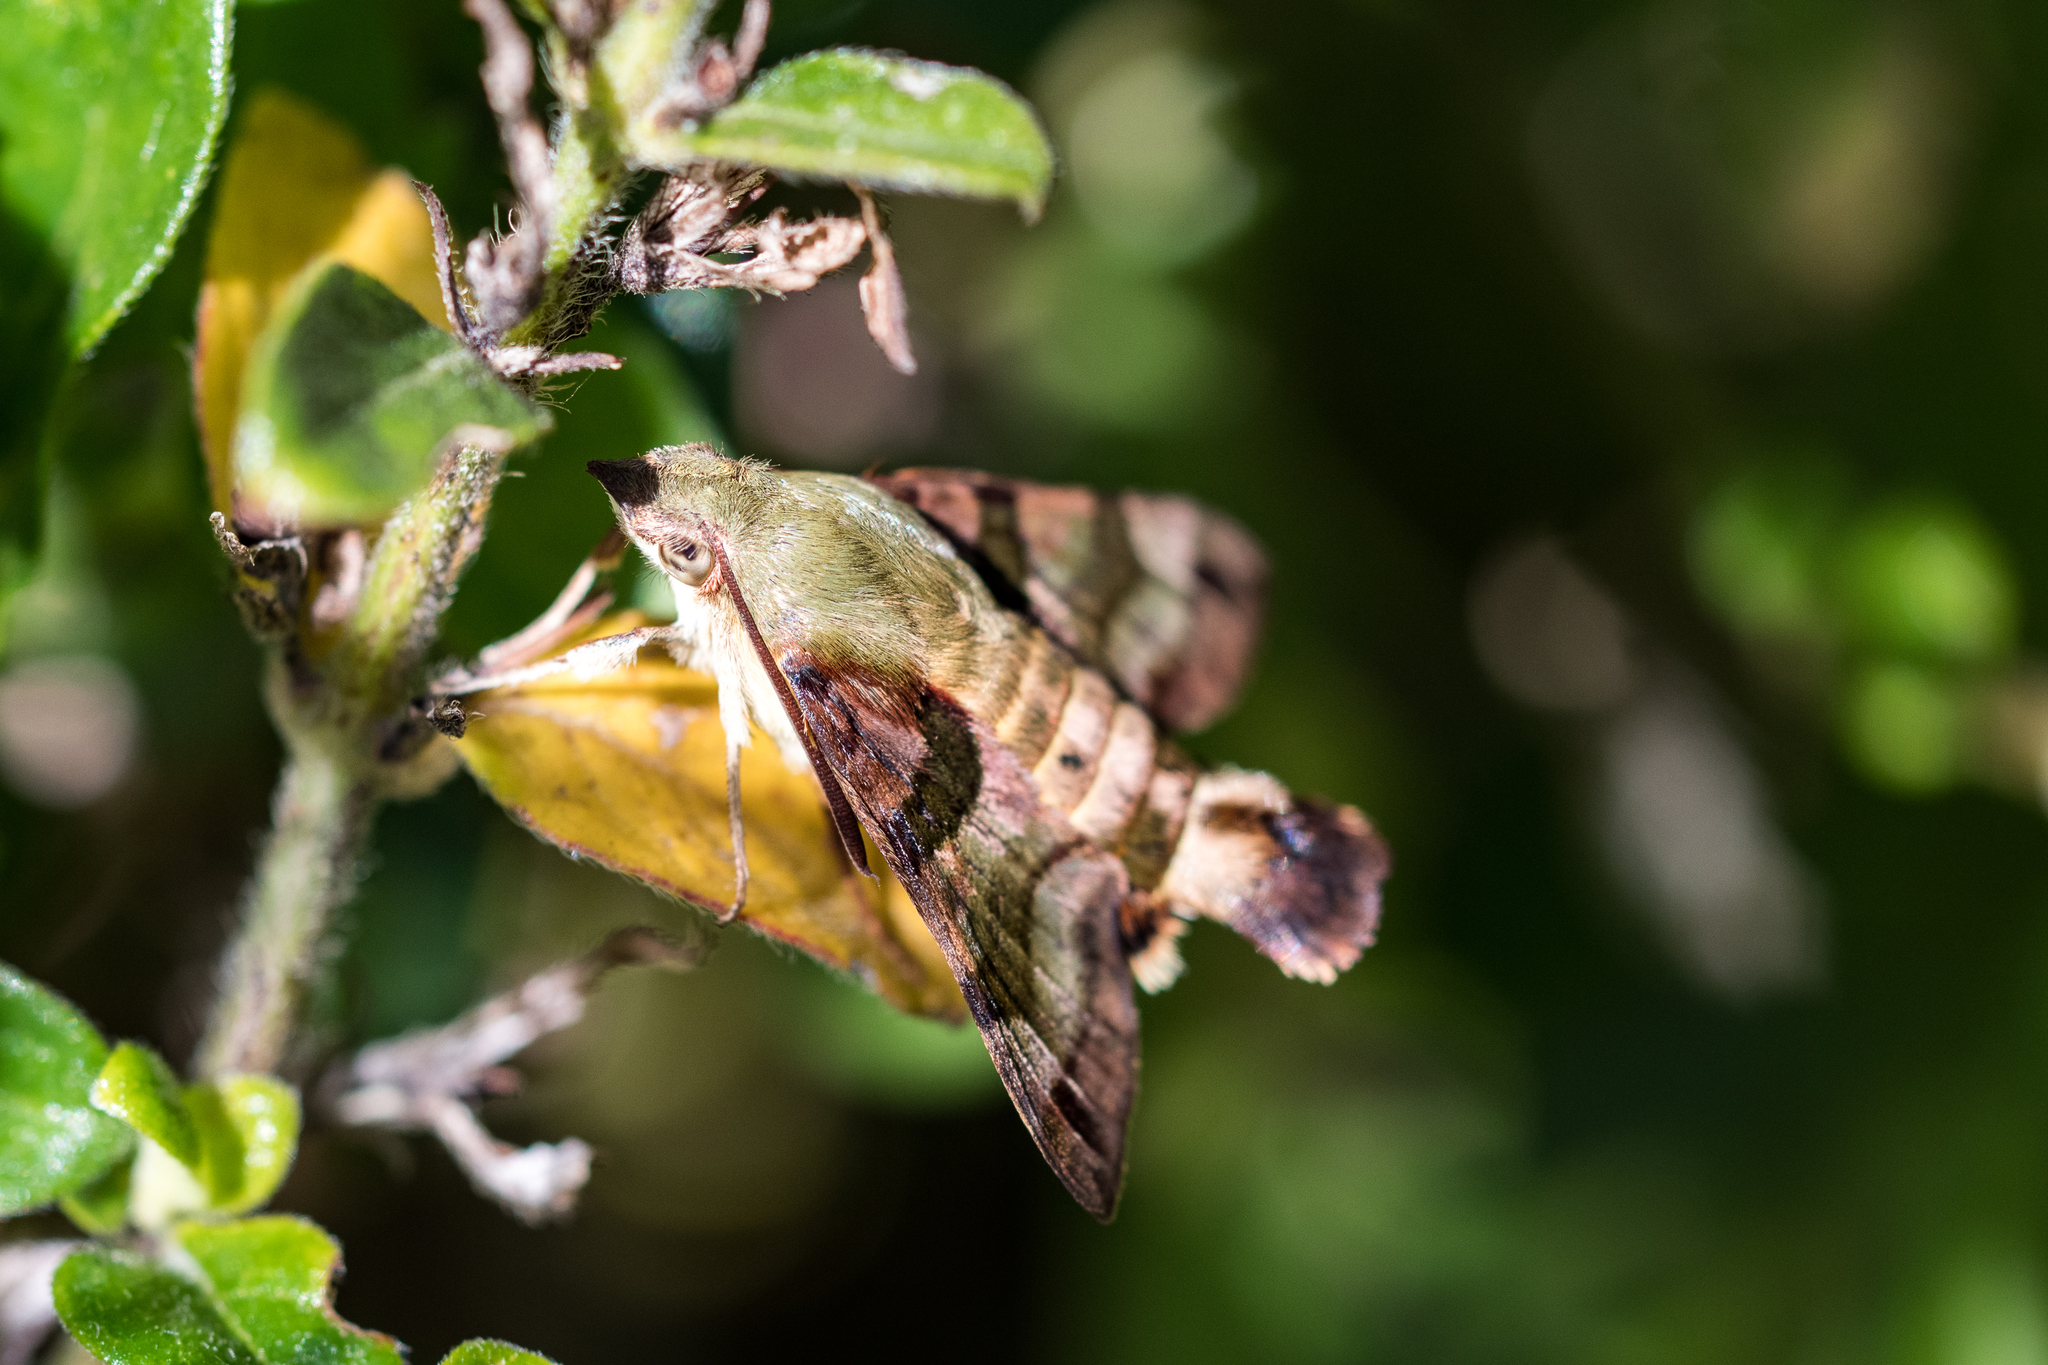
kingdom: Animalia
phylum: Arthropoda
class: Insecta
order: Lepidoptera
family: Sphingidae
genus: Macroglossum
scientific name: Macroglossum trochilus
